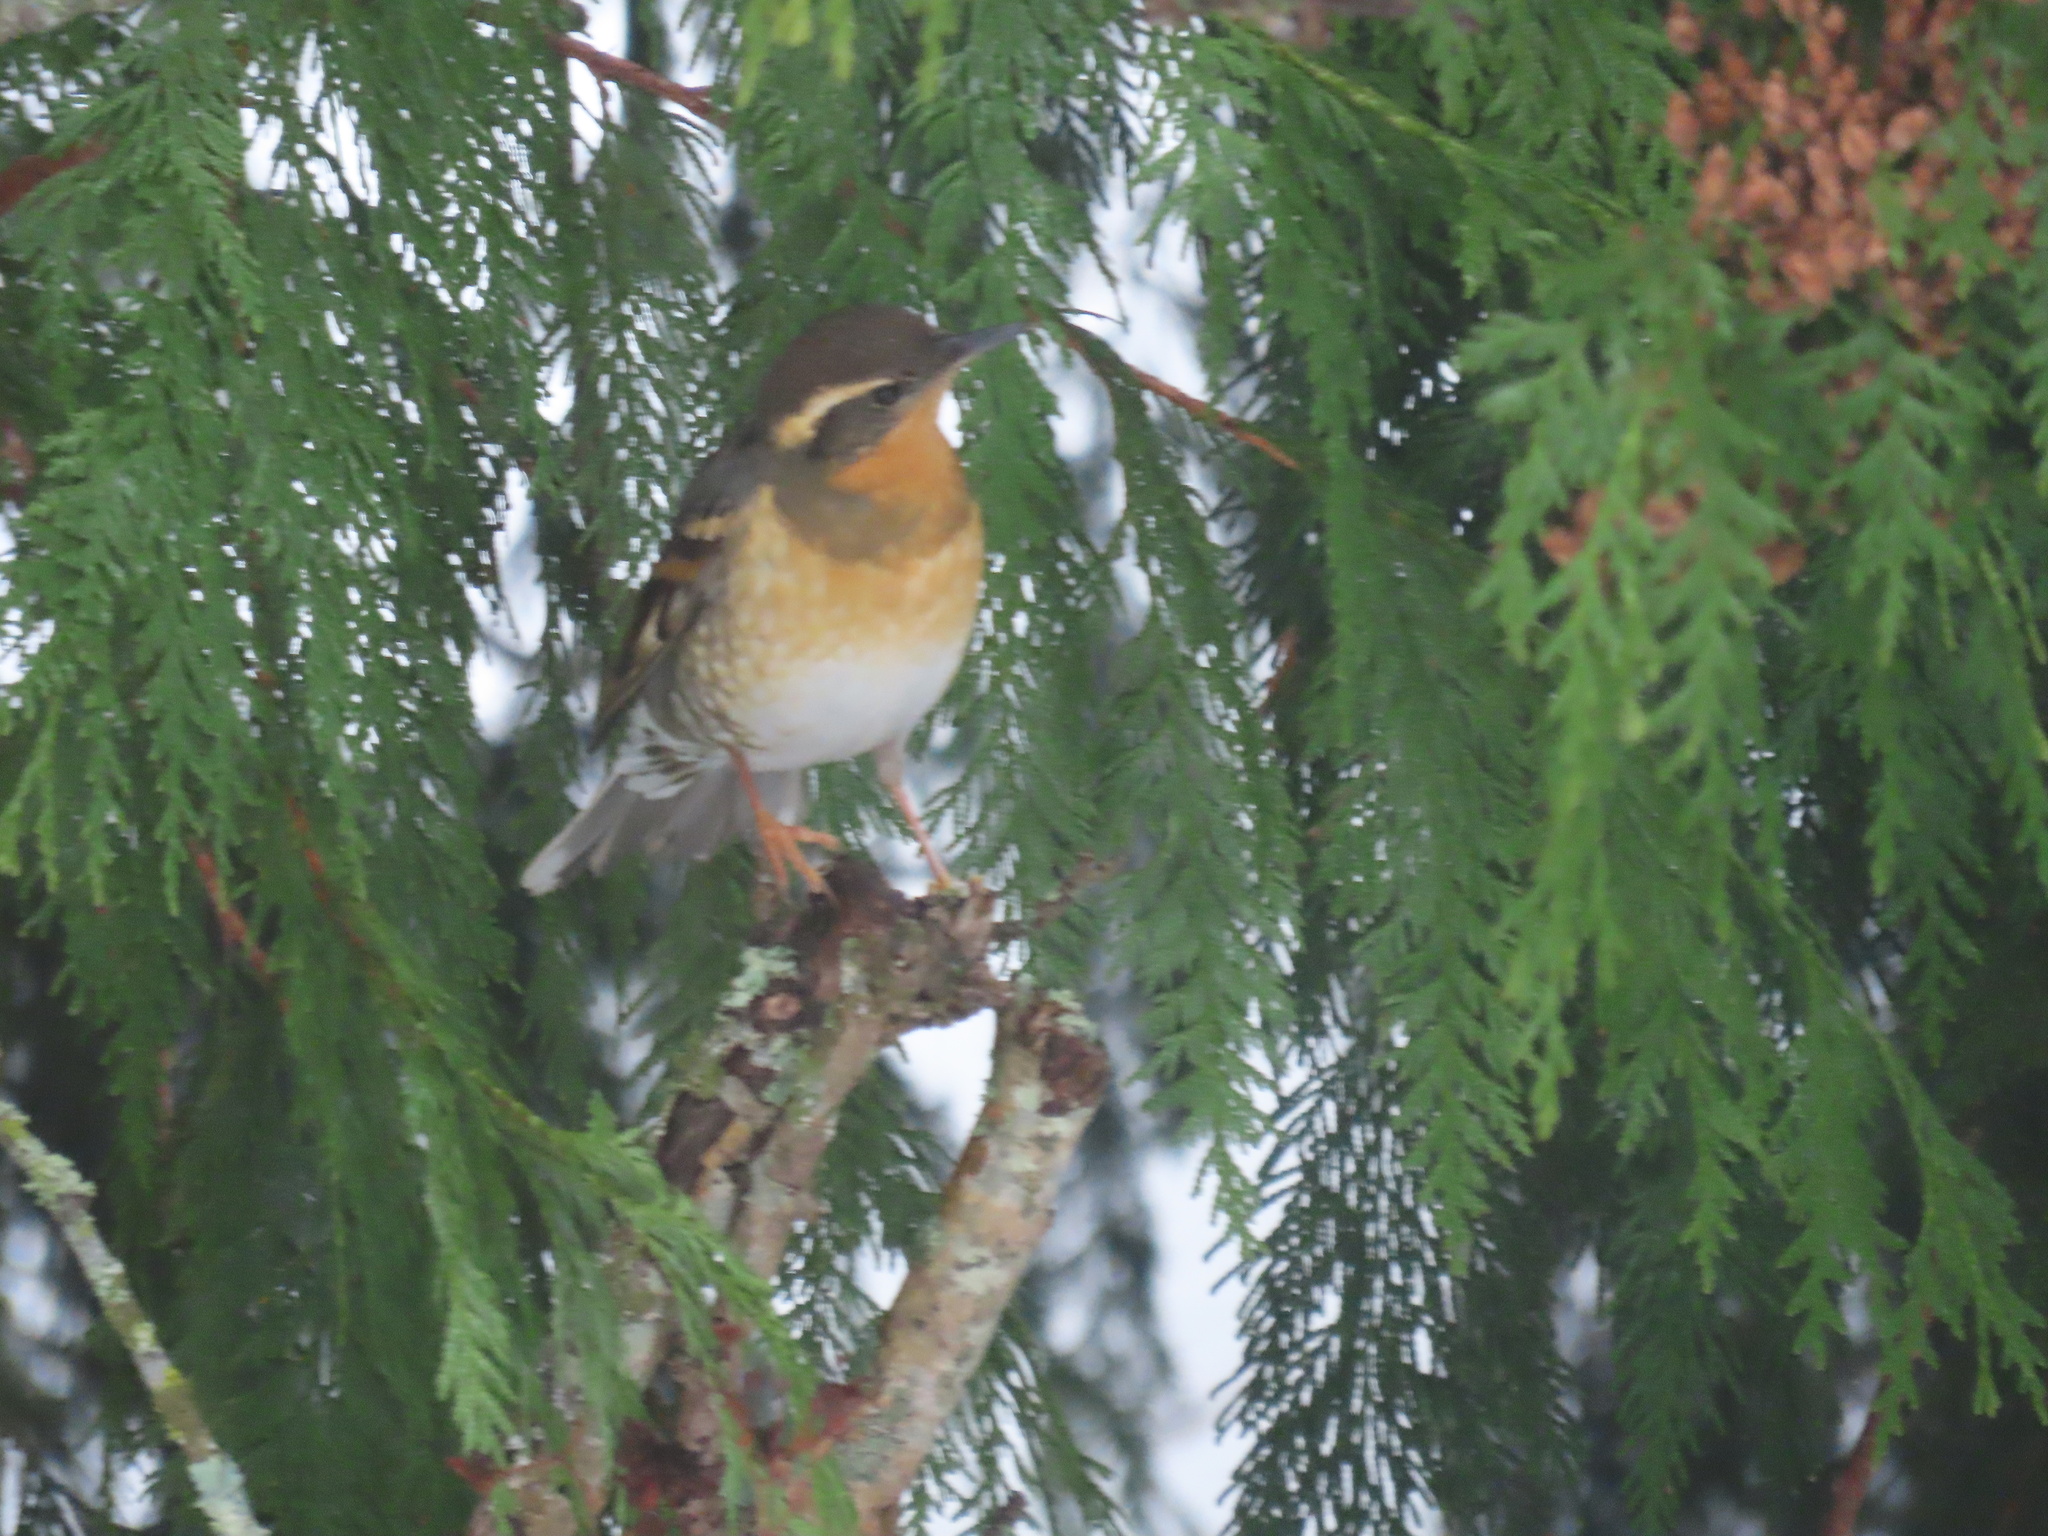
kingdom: Animalia
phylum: Chordata
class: Aves
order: Passeriformes
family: Turdidae
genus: Ixoreus
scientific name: Ixoreus naevius
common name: Varied thrush
